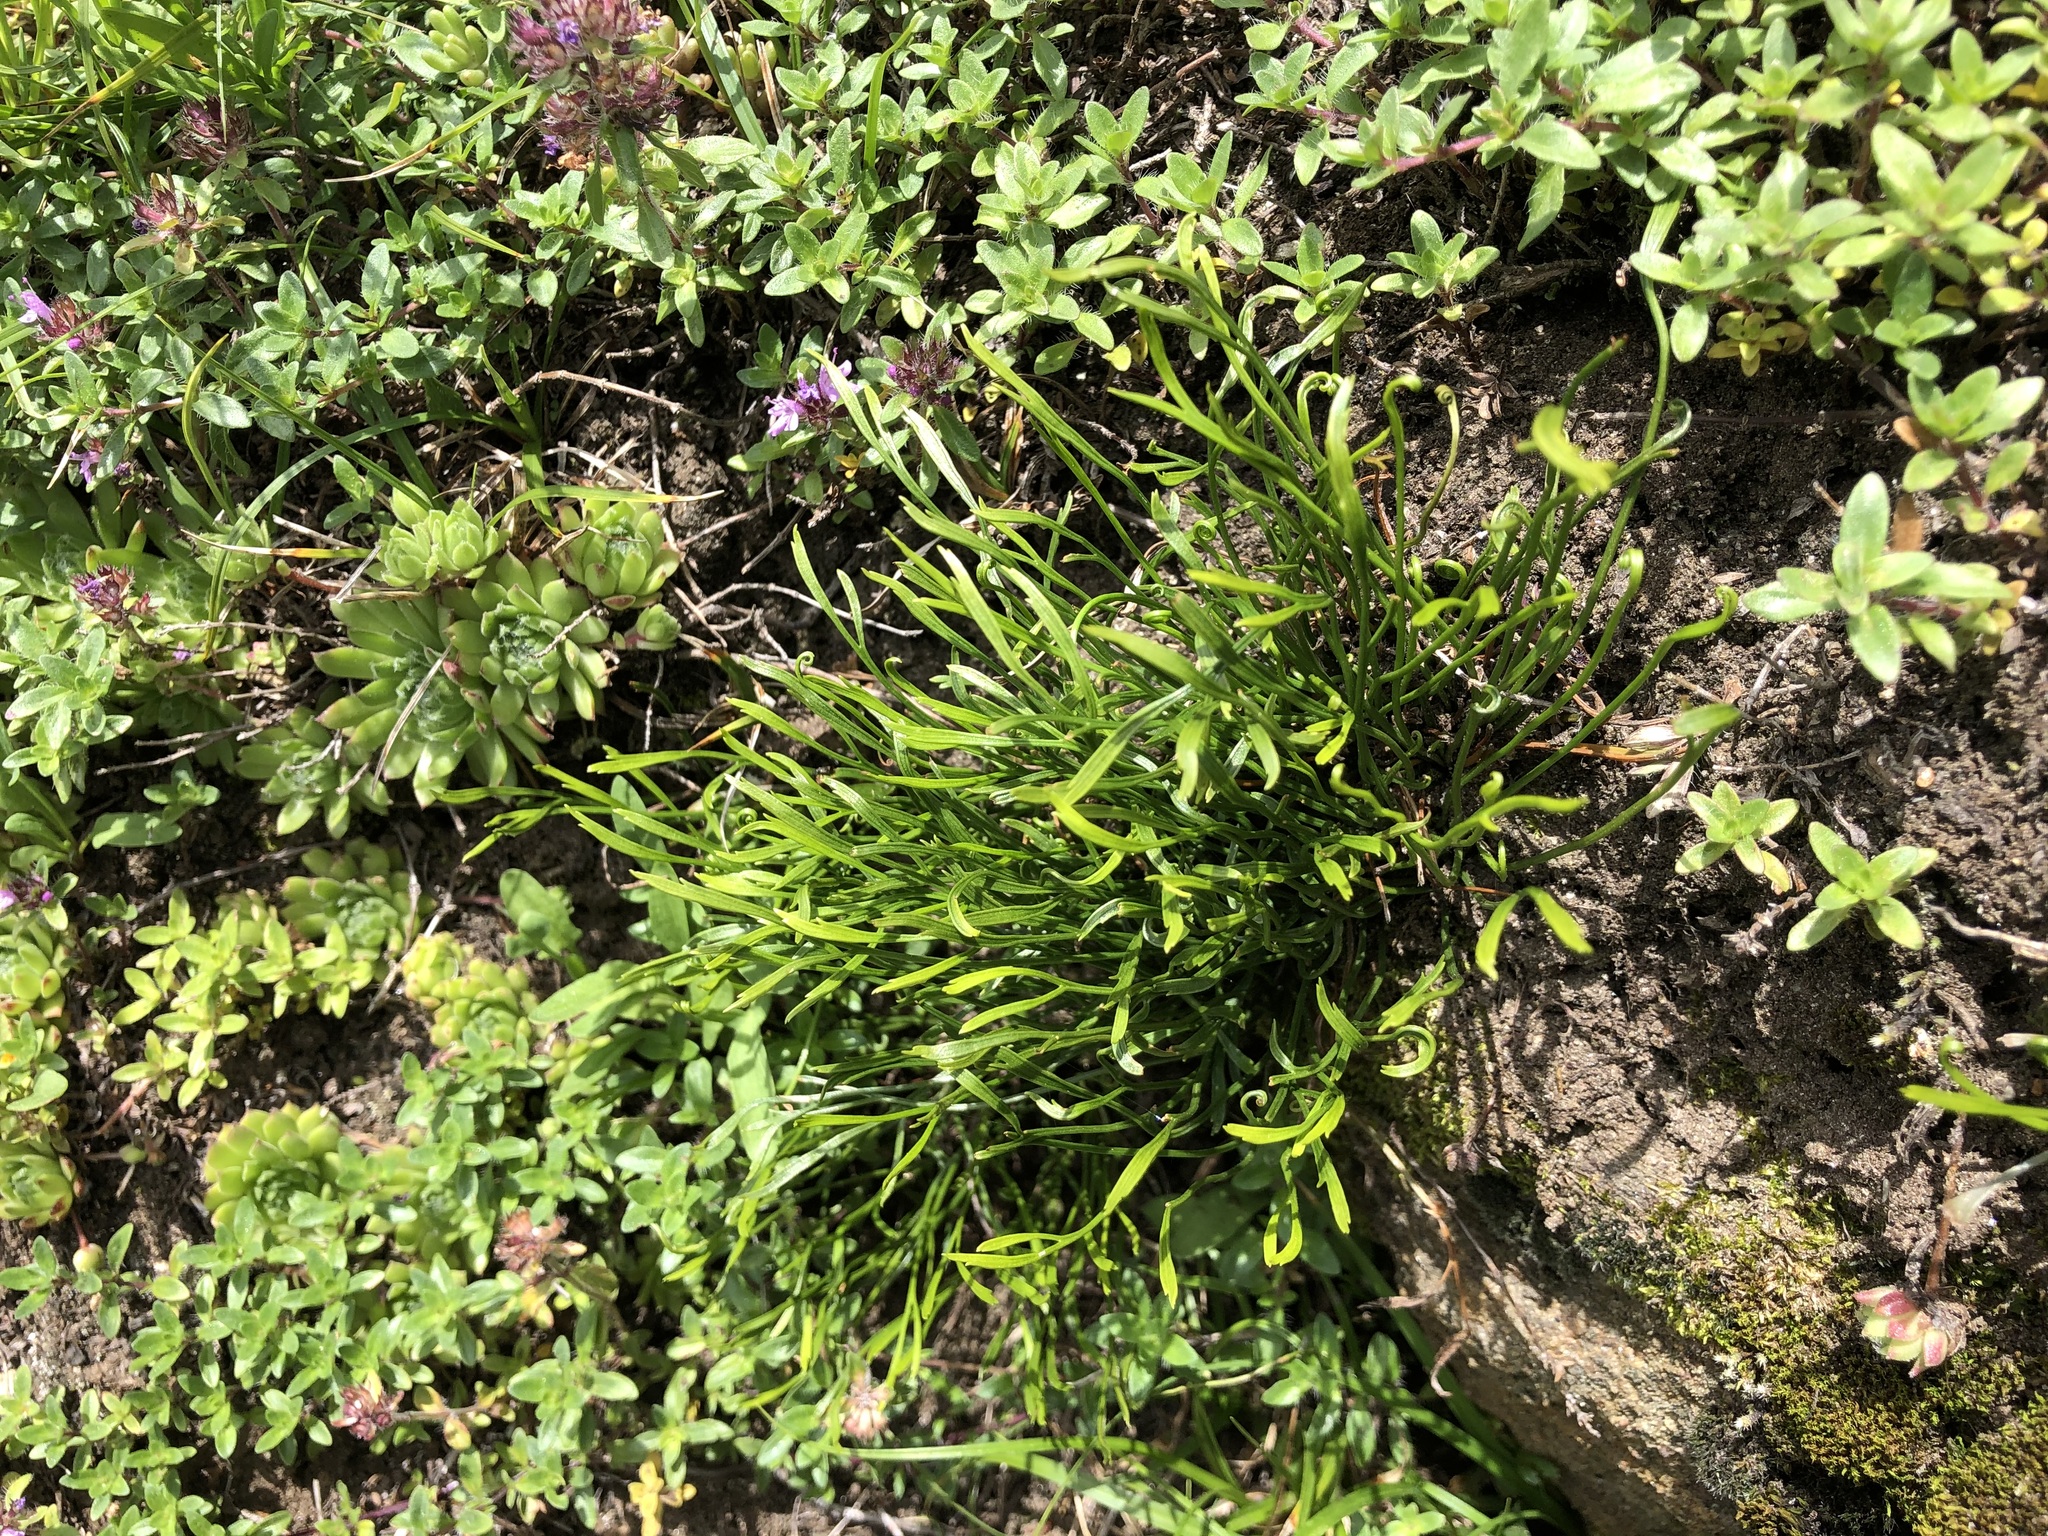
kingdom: Plantae
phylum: Tracheophyta
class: Polypodiopsida
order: Polypodiales
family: Aspleniaceae
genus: Asplenium
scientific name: Asplenium septentrionale
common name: Forked spleenwort
